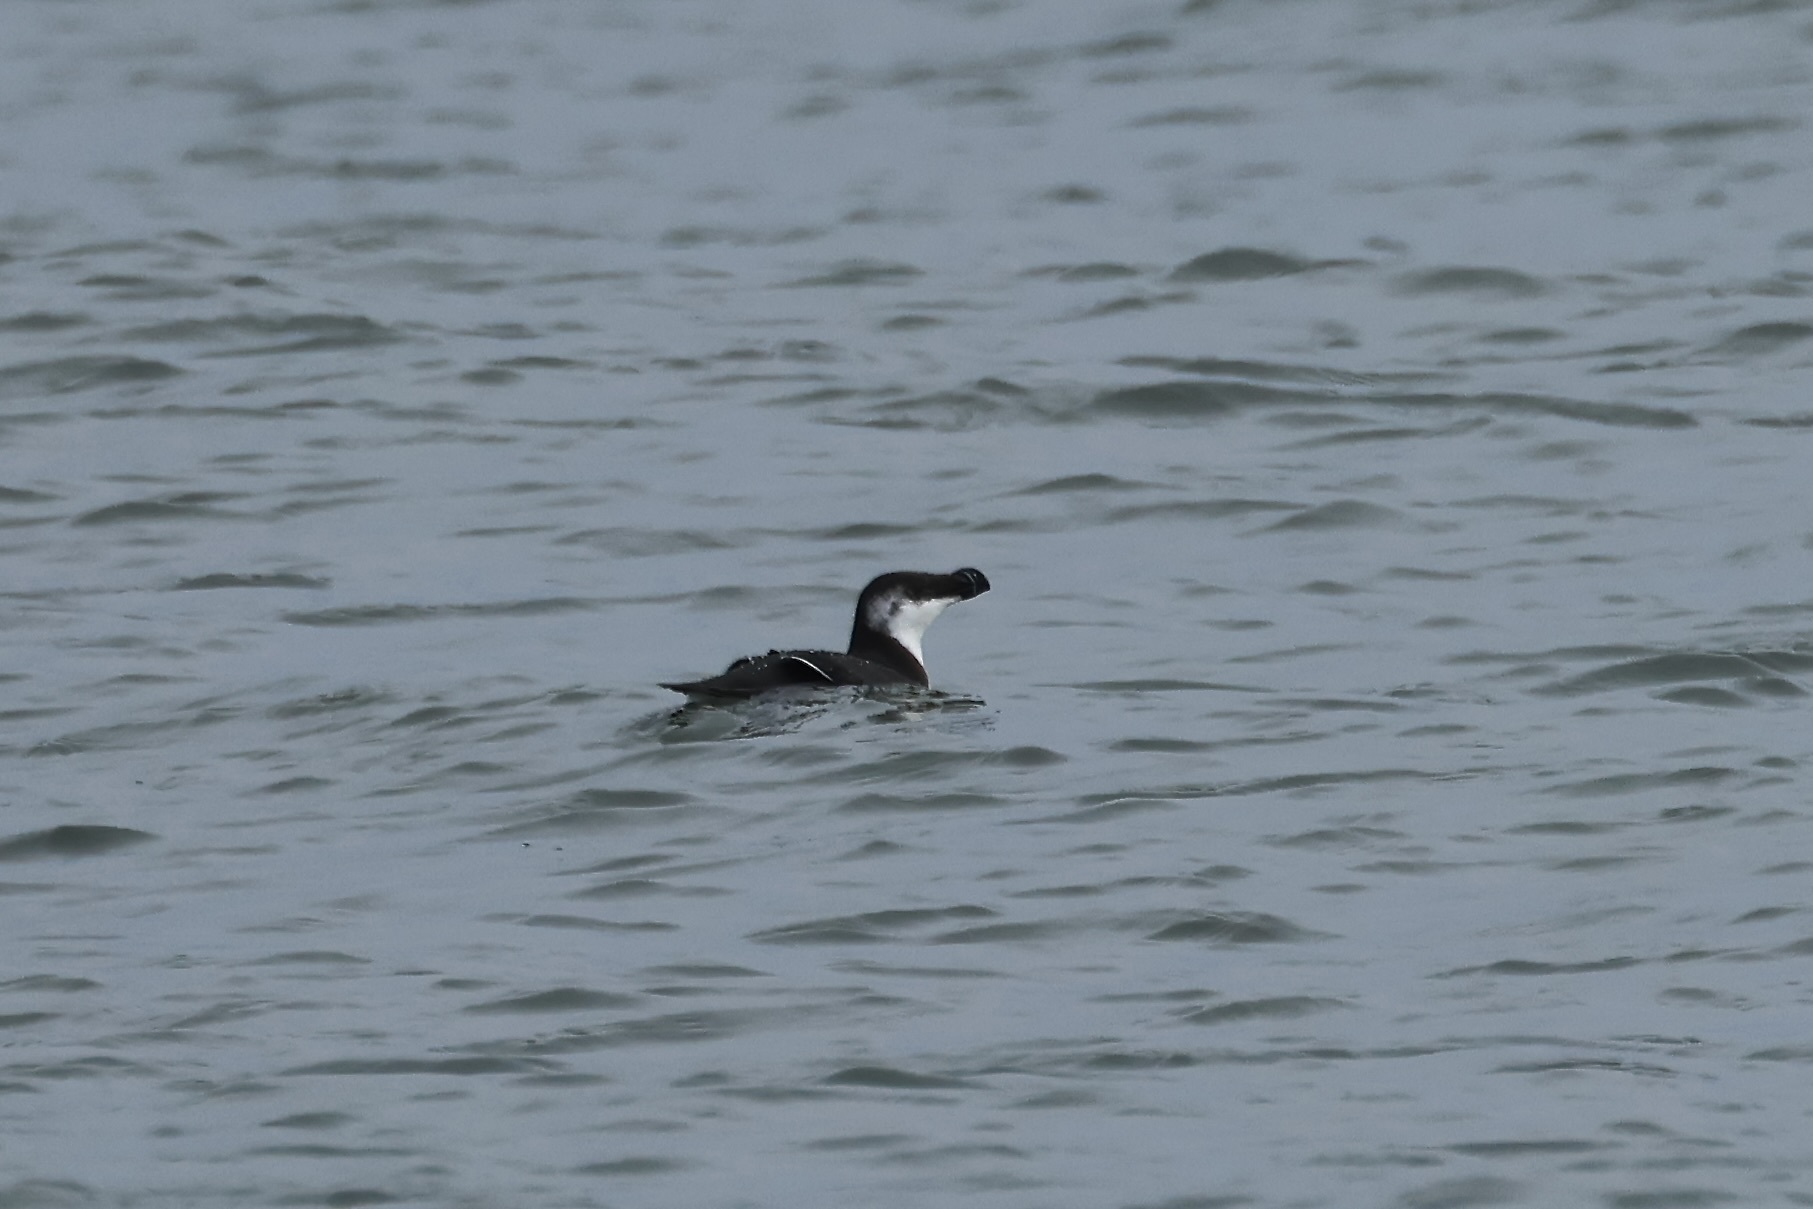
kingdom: Animalia
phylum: Chordata
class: Aves
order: Charadriiformes
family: Alcidae
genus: Alca
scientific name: Alca torda
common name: Razorbill
